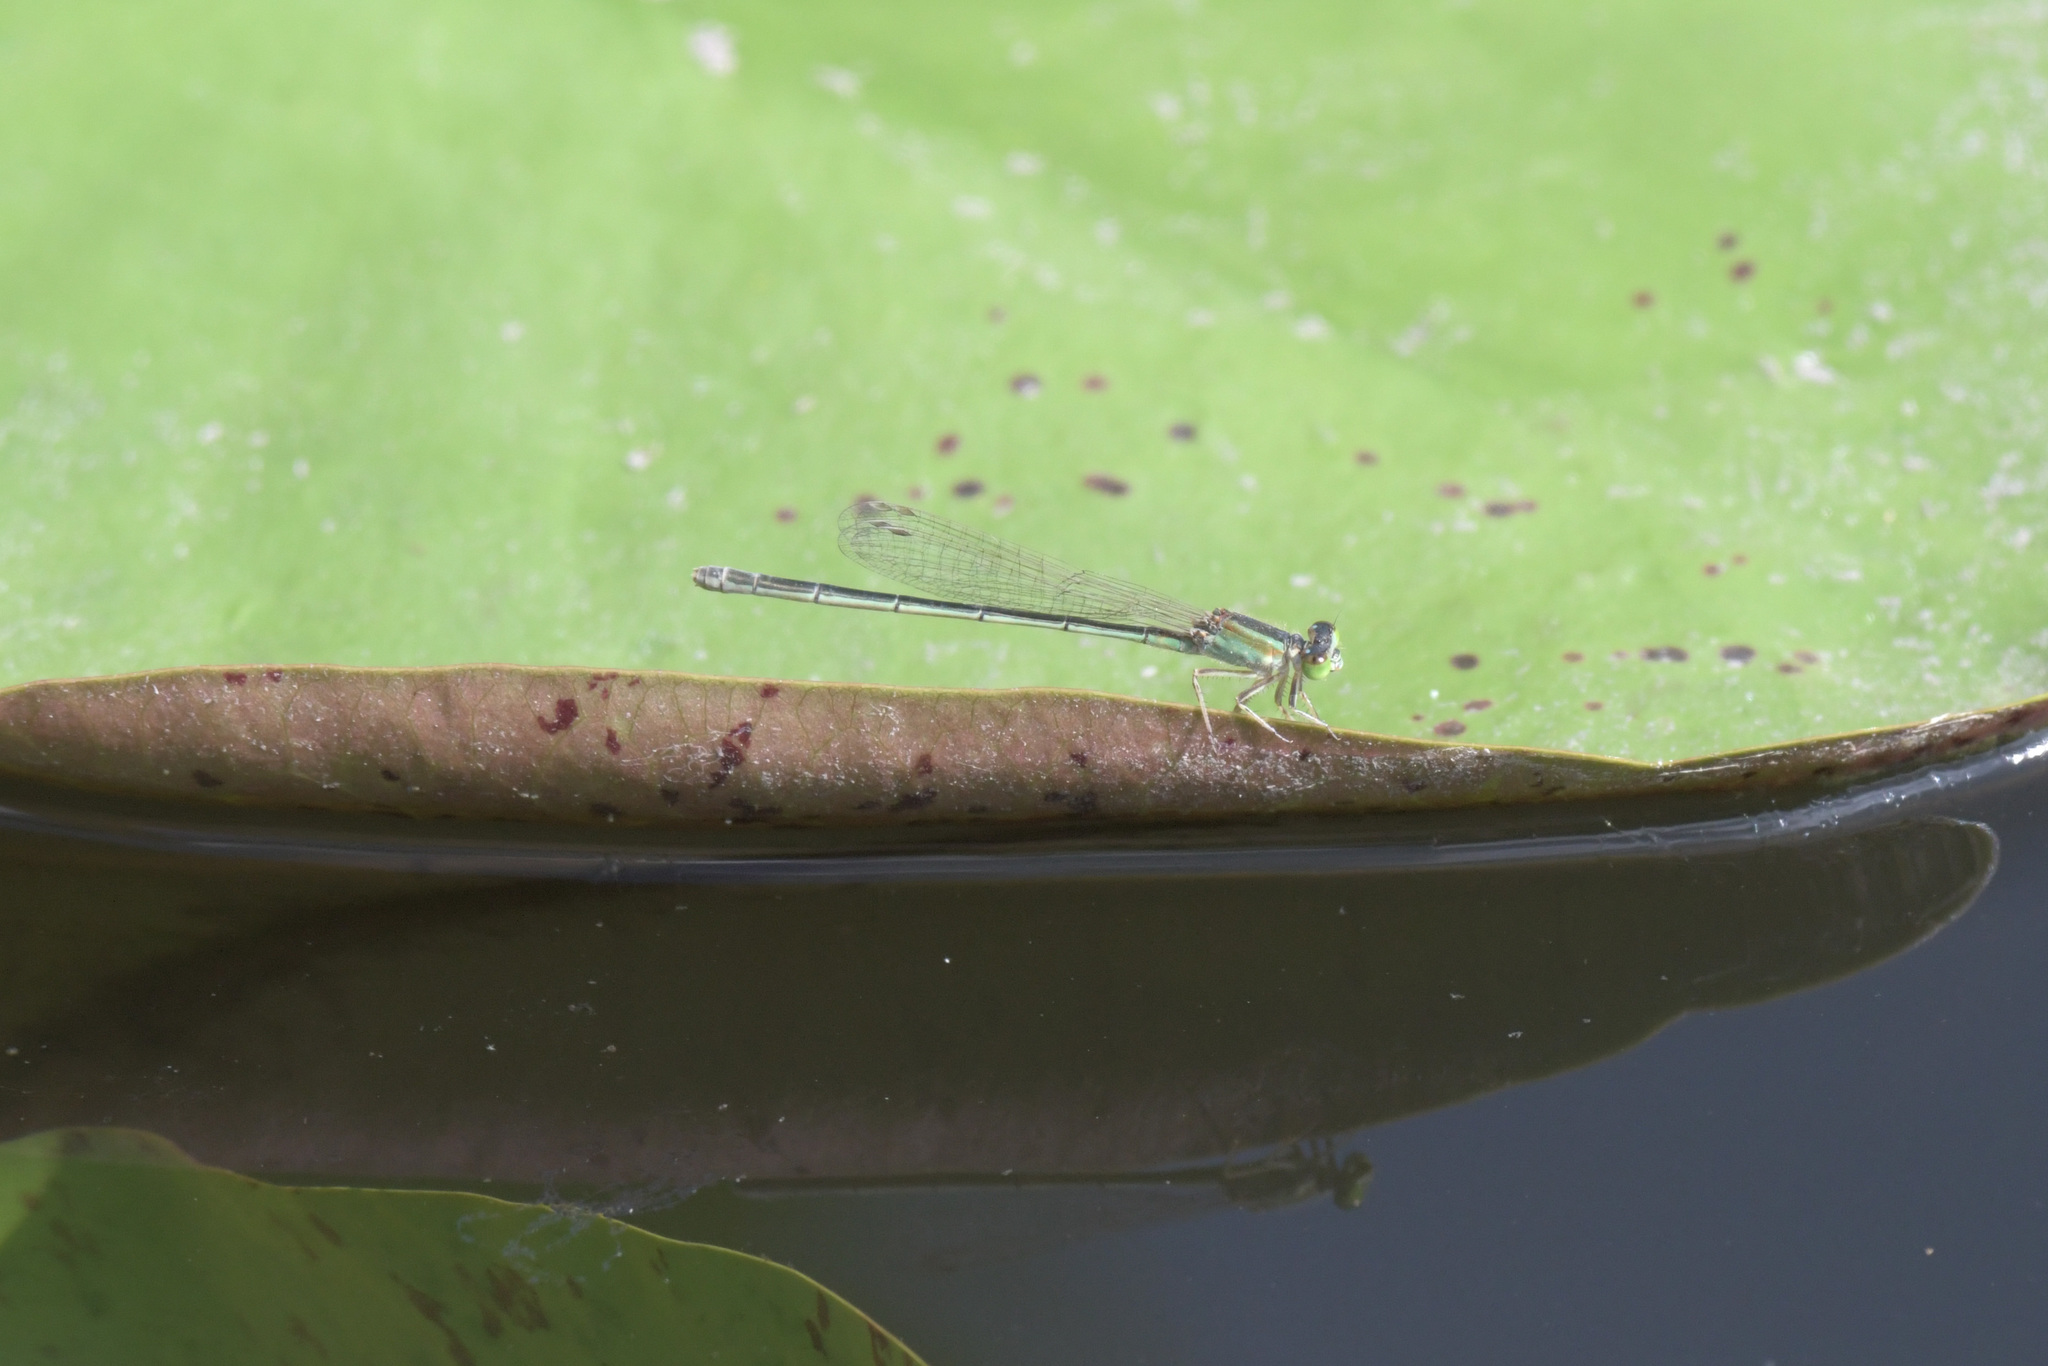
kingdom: Animalia
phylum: Arthropoda
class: Insecta
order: Odonata
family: Coenagrionidae
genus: Ischnura
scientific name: Ischnura senegalensis
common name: Tropical bluetail
